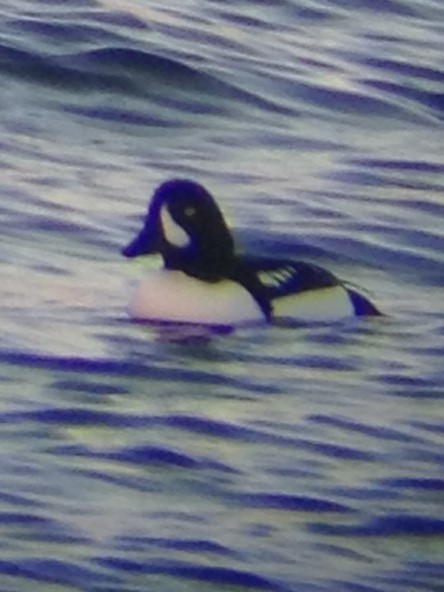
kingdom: Animalia
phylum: Chordata
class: Aves
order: Anseriformes
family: Anatidae
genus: Bucephala
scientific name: Bucephala islandica
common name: Barrow's goldeneye
